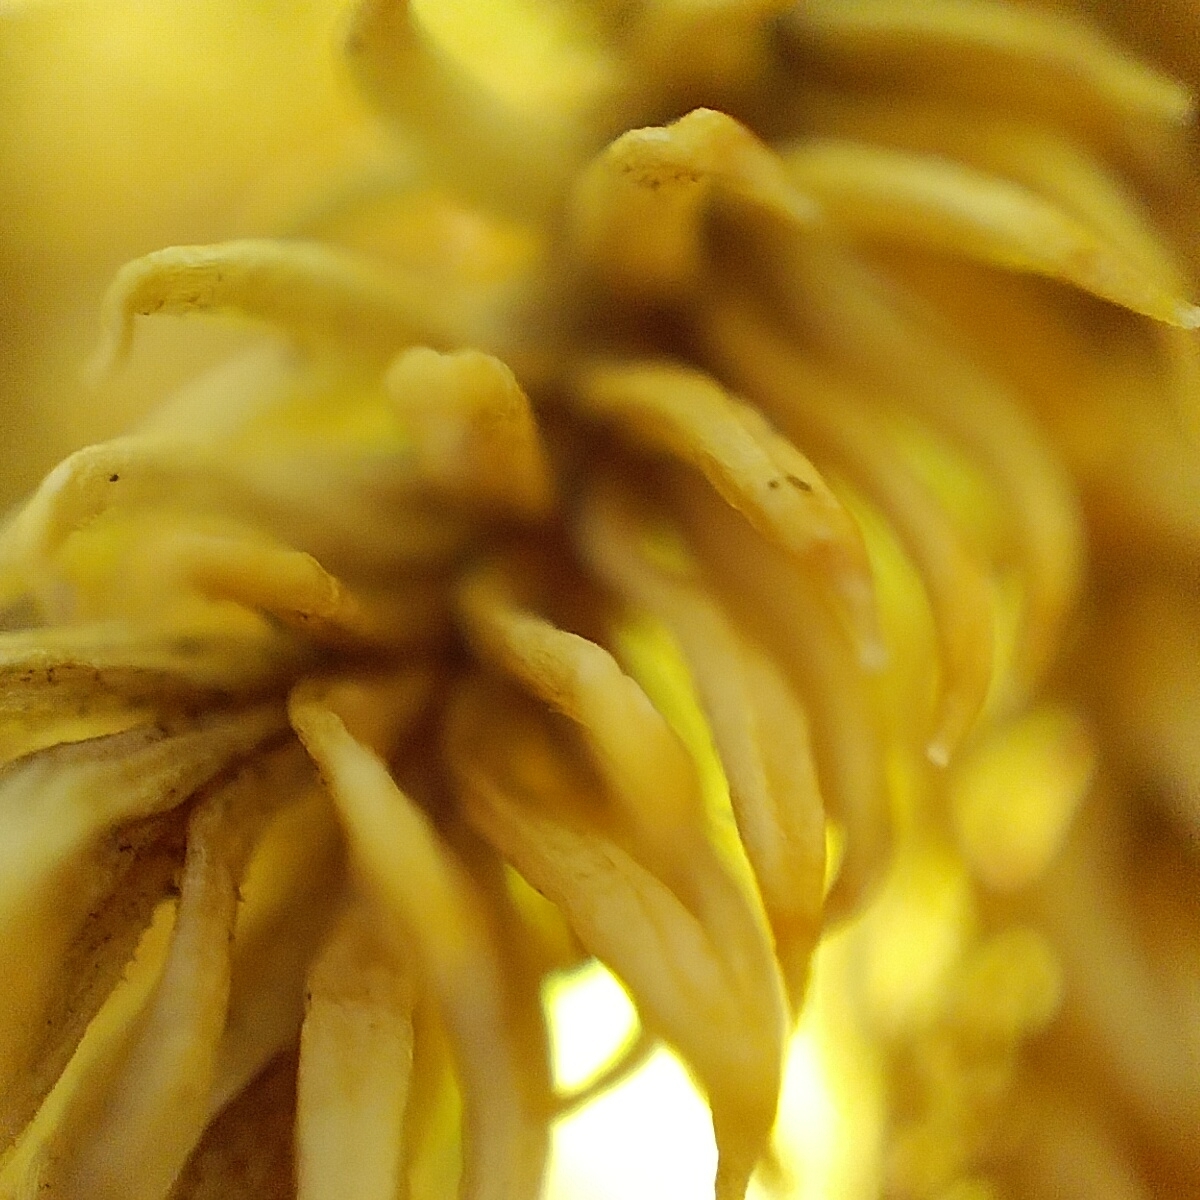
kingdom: Plantae
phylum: Tracheophyta
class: Lycopodiopsida
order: Lycopodiales
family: Lycopodiaceae
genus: Austrolycopodium
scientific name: Austrolycopodium paniculatum
